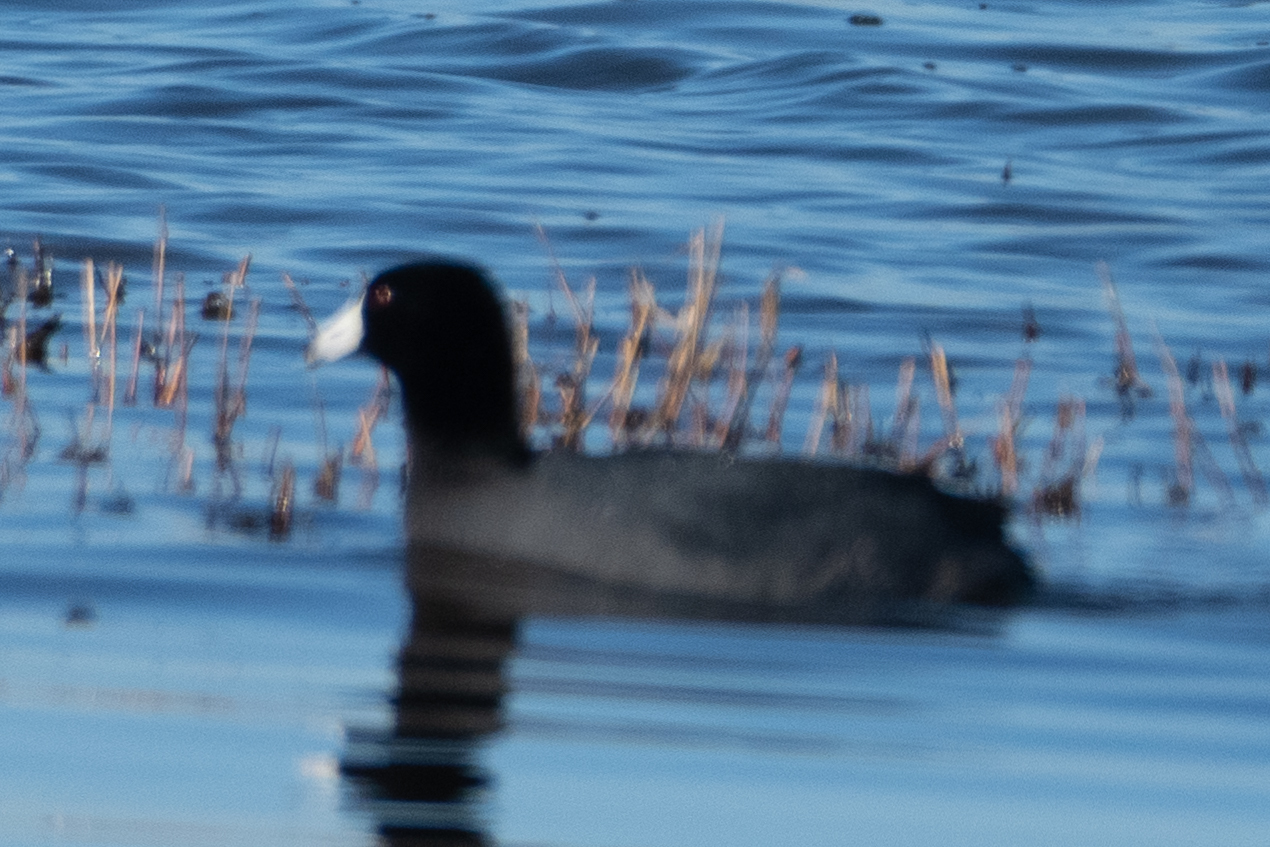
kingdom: Animalia
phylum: Chordata
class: Aves
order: Gruiformes
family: Rallidae
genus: Fulica
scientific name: Fulica americana
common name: American coot
